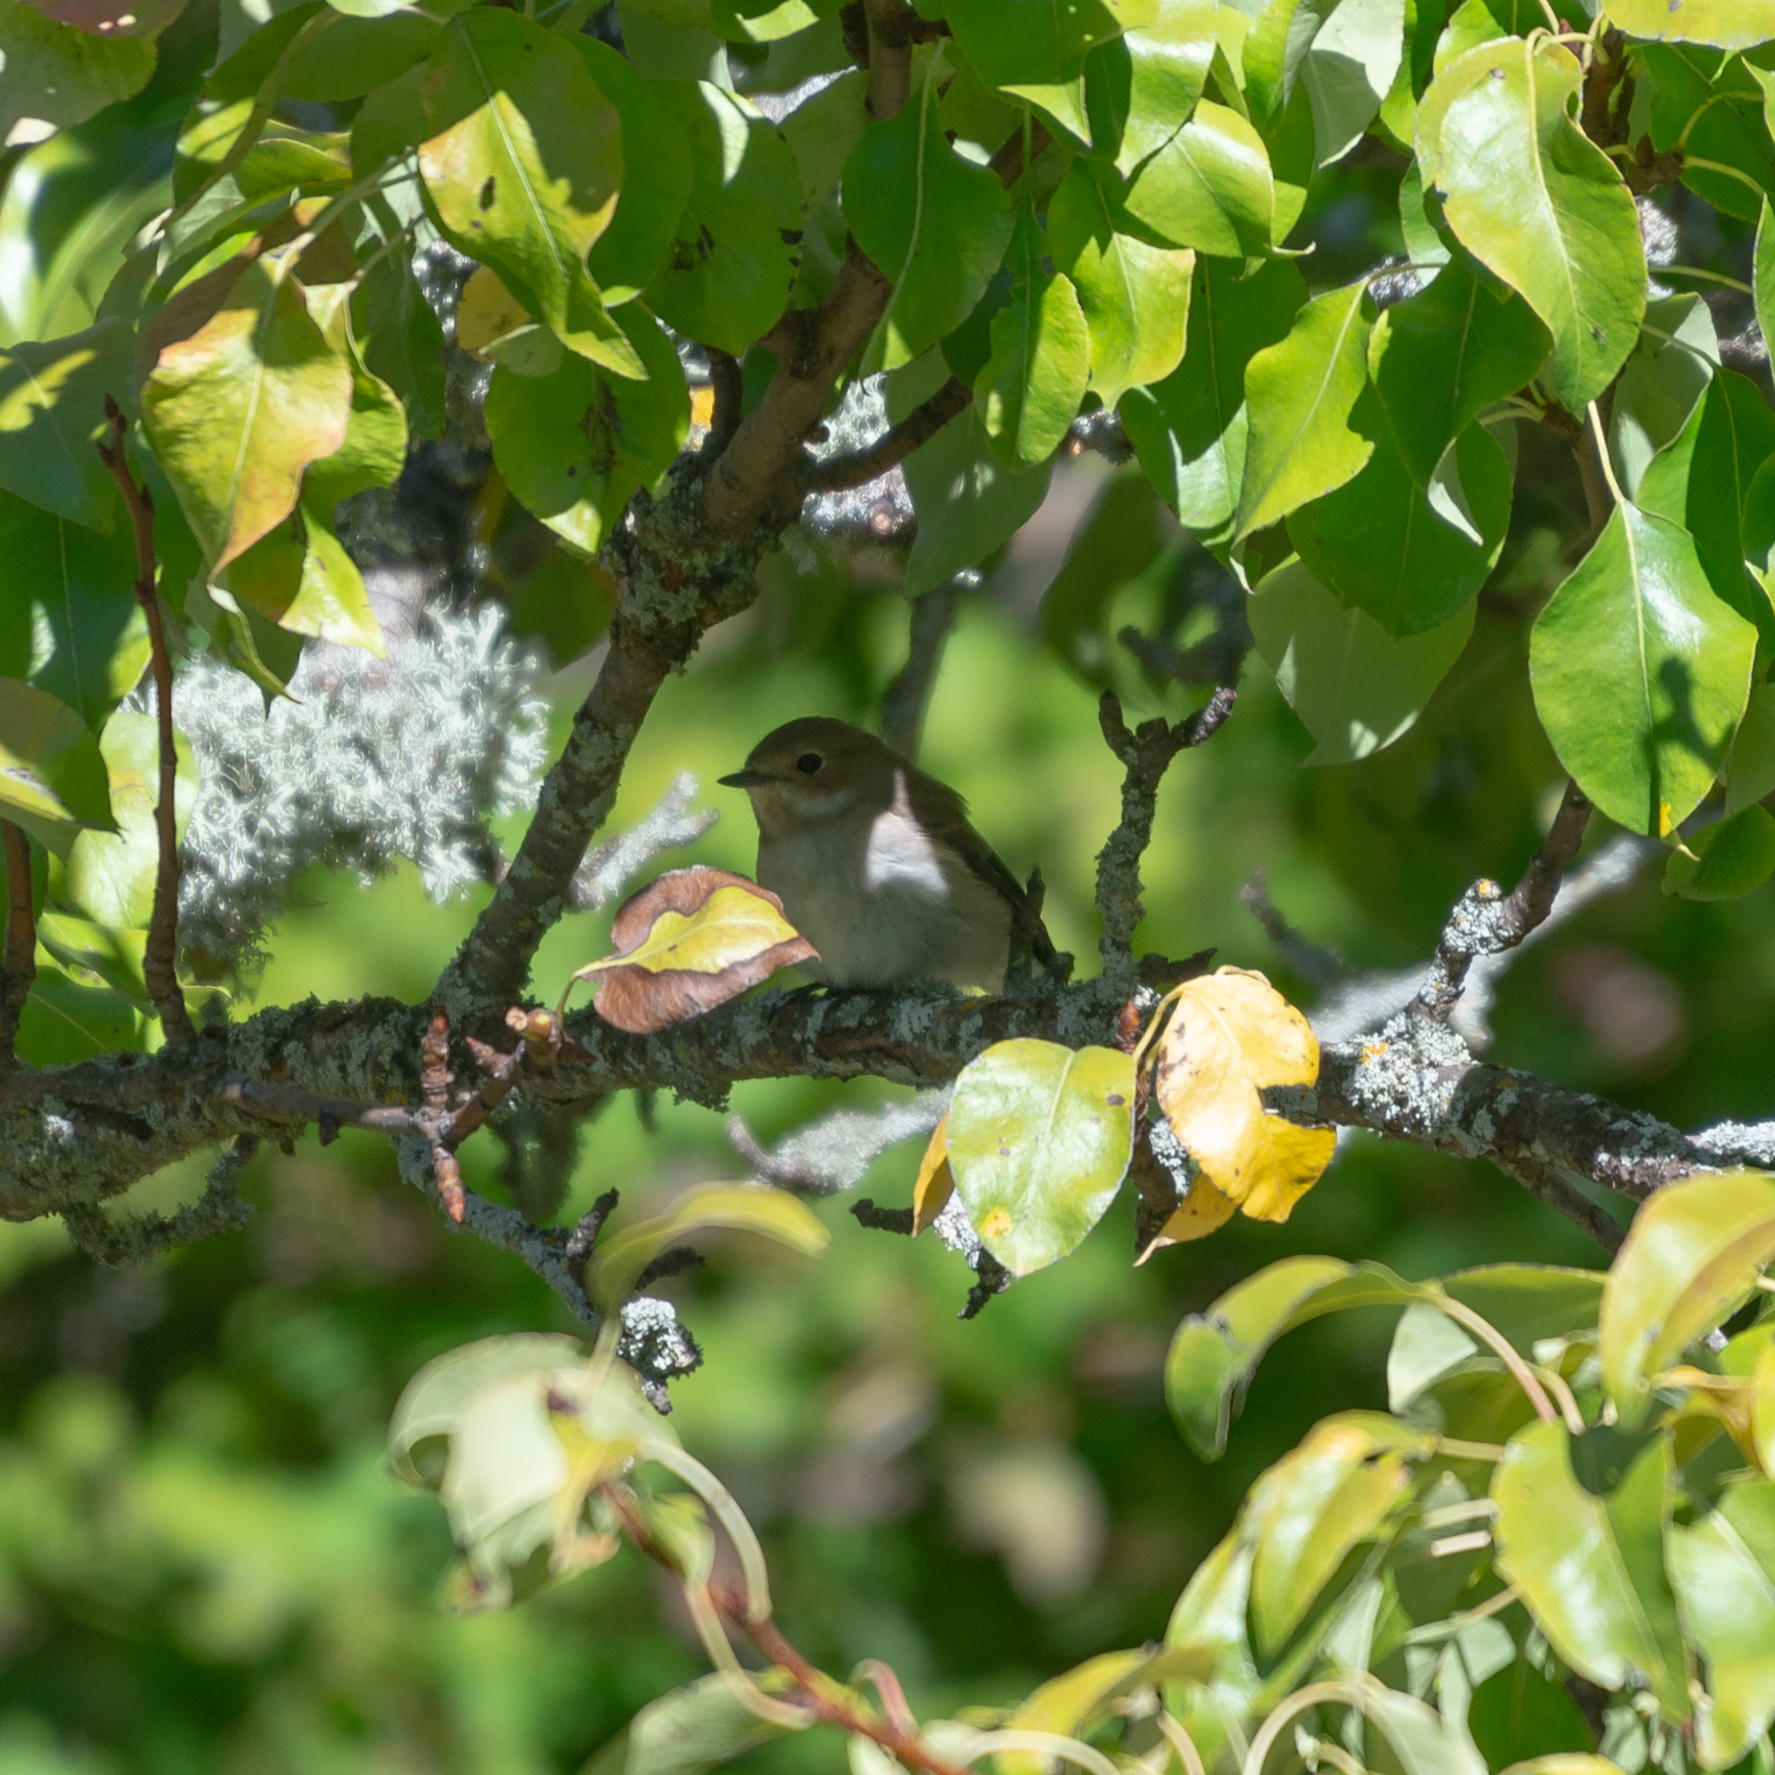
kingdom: Animalia
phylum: Chordata
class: Aves
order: Passeriformes
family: Muscicapidae
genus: Ficedula
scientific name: Ficedula hypoleuca
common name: European pied flycatcher
